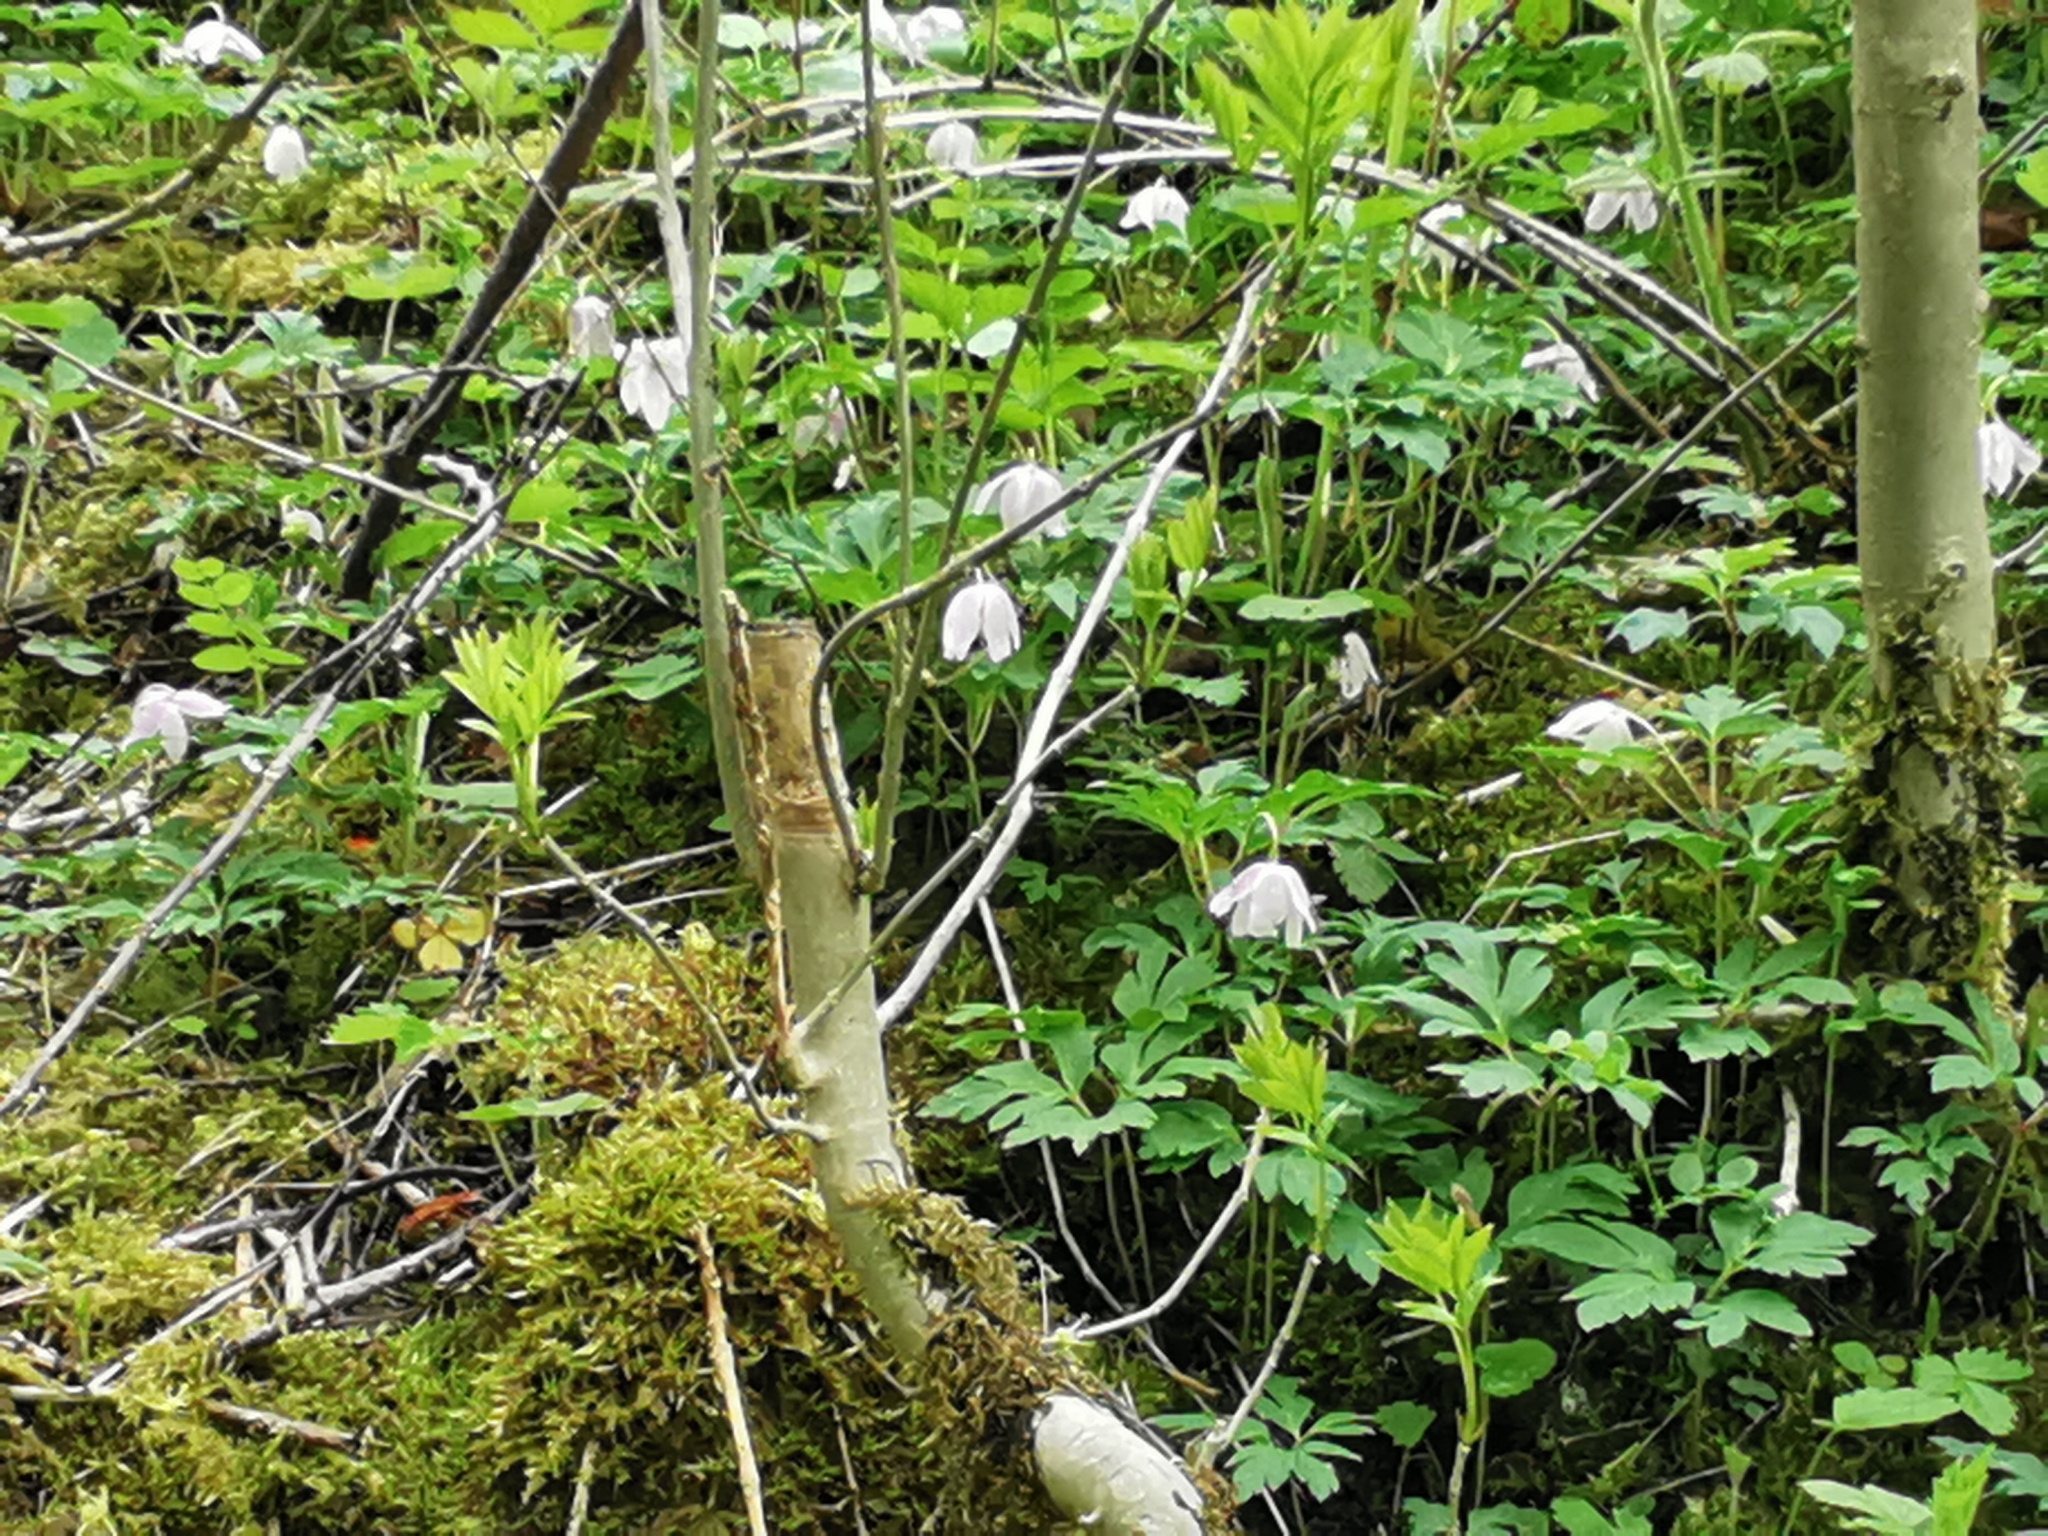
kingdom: Plantae
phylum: Tracheophyta
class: Magnoliopsida
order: Ranunculales
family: Ranunculaceae
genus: Anemone
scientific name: Anemone nemorosa
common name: Wood anemone
